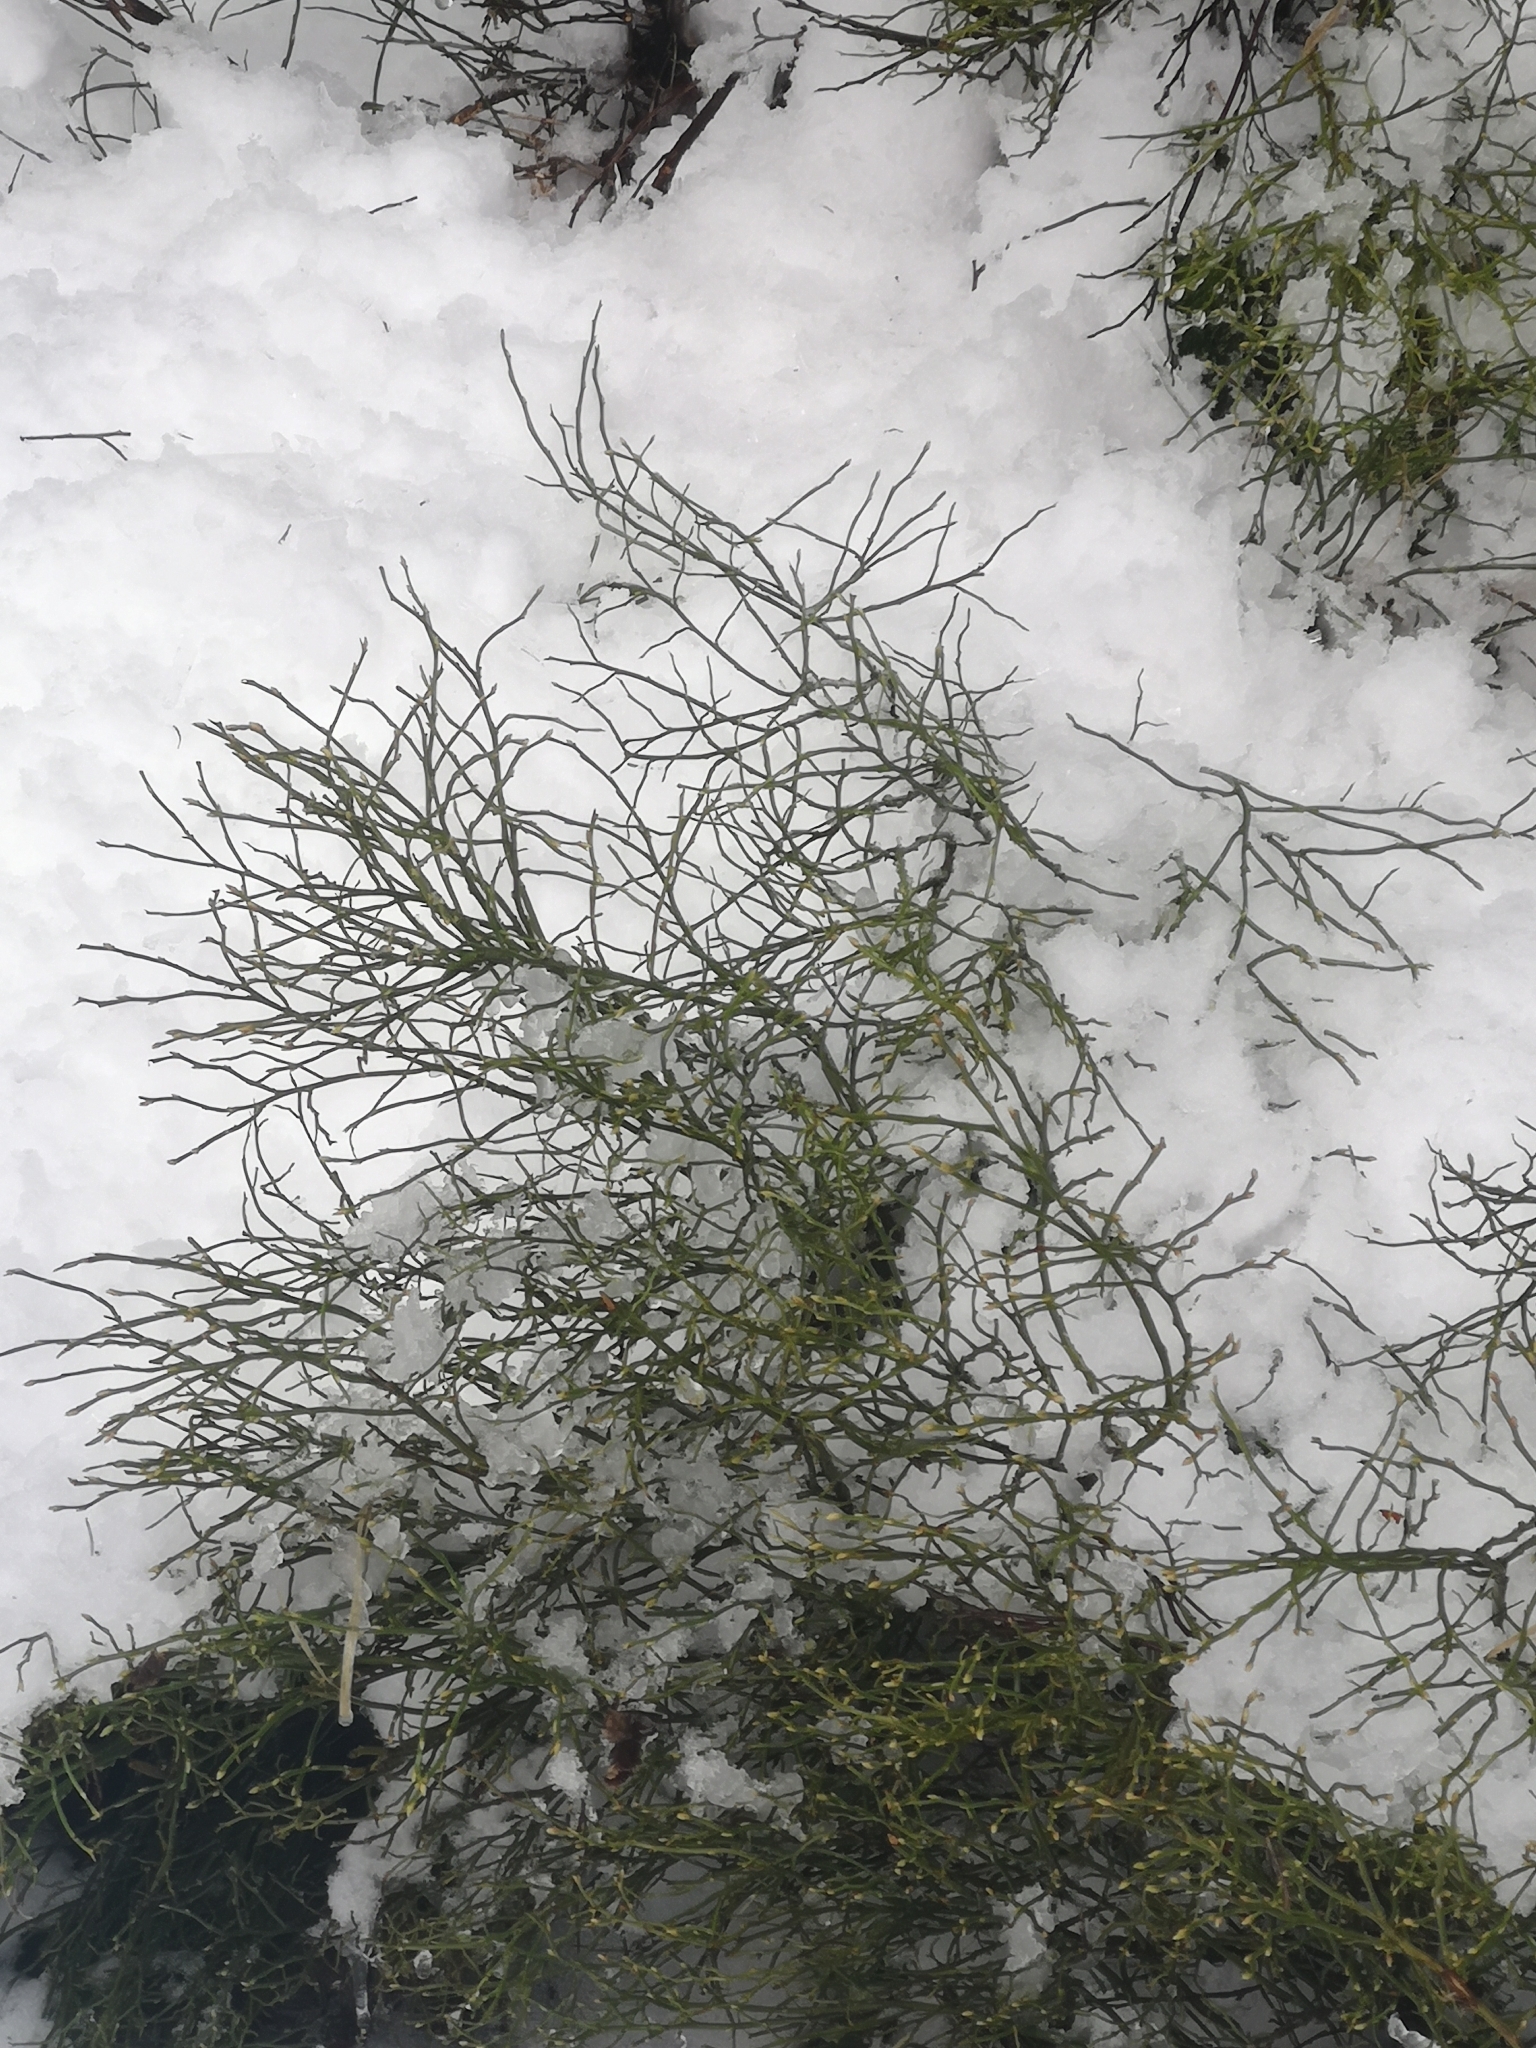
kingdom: Plantae
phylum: Tracheophyta
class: Magnoliopsida
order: Ericales
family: Ericaceae
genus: Vaccinium
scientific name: Vaccinium myrtillus
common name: Bilberry
